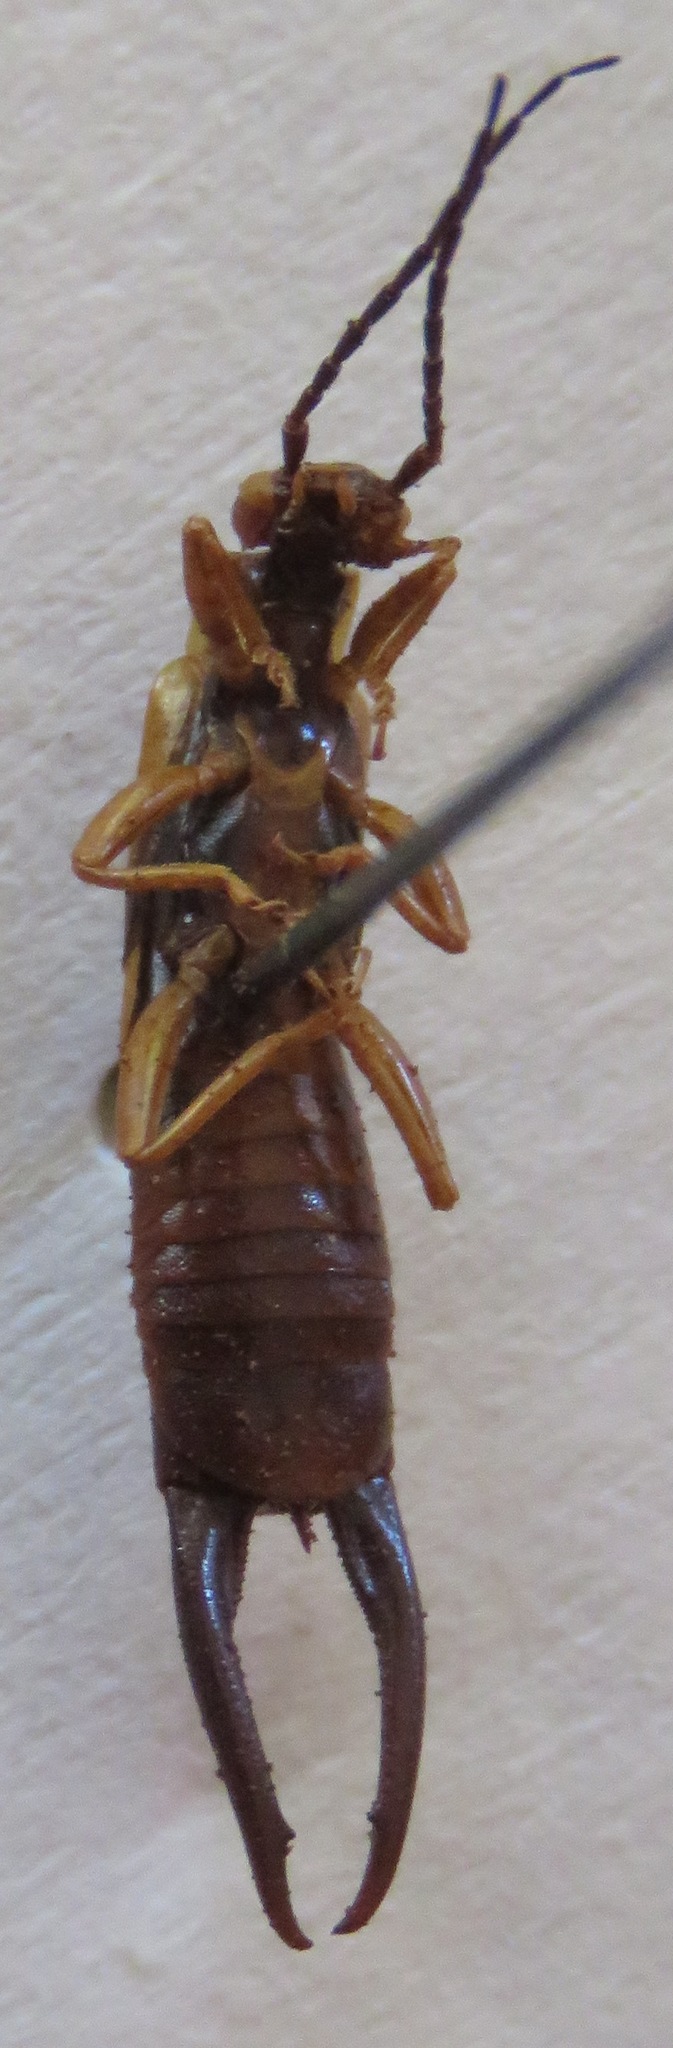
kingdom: Animalia
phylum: Arthropoda
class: Insecta
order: Dermaptera
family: Forficulidae
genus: Doru
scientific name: Doru lineare
